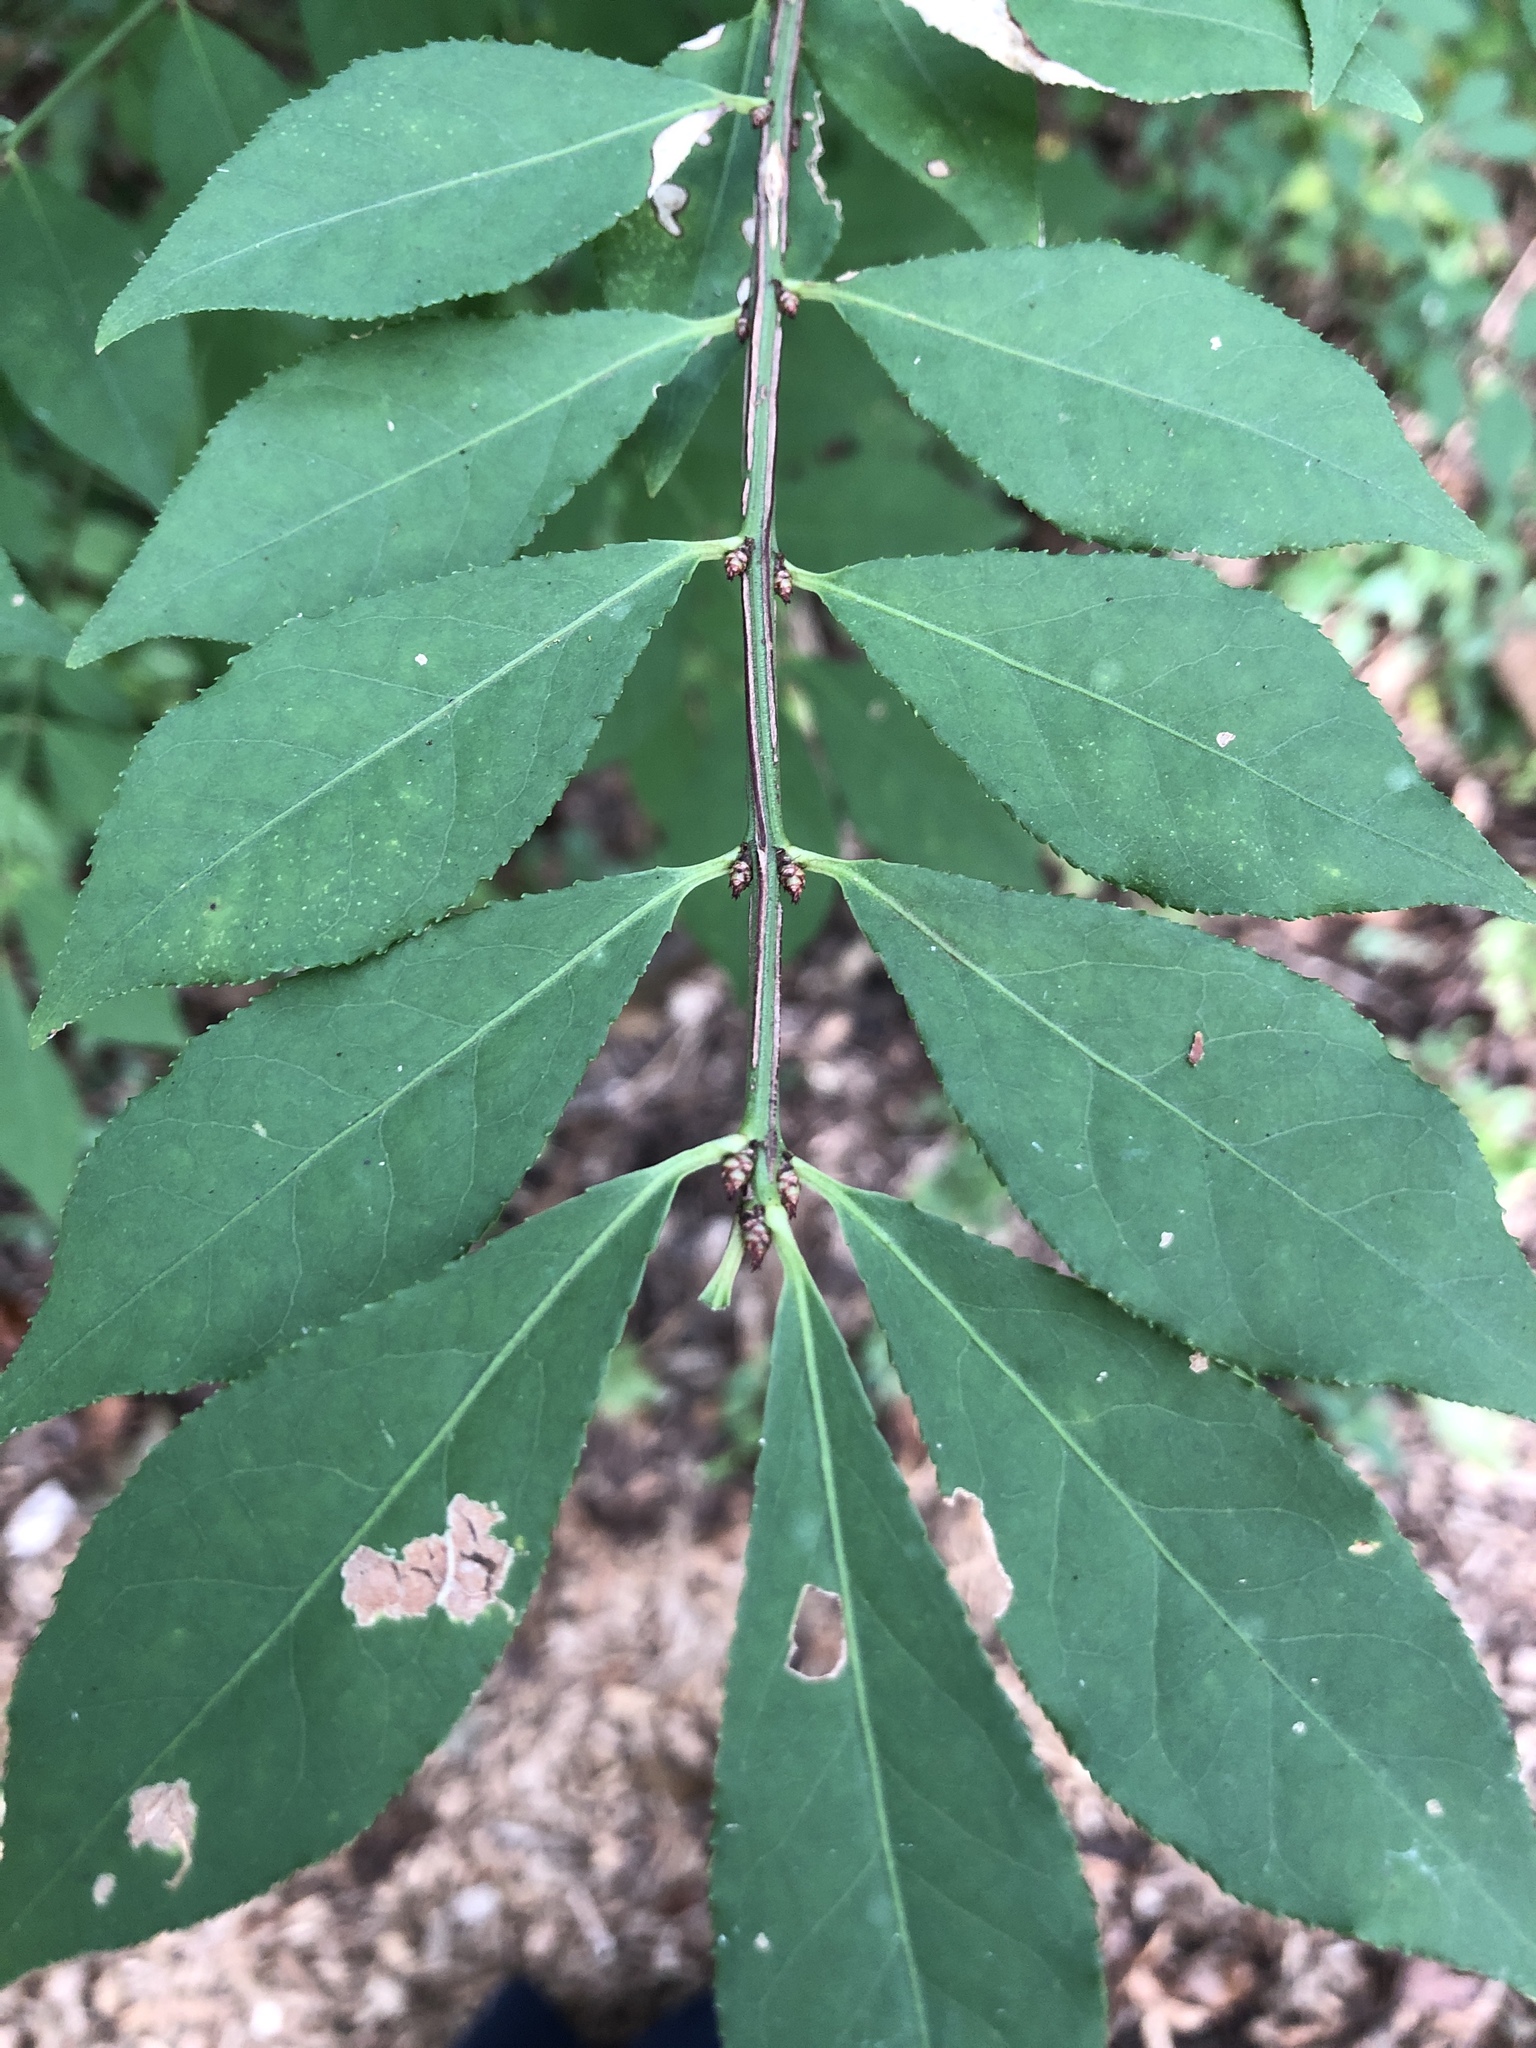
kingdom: Plantae
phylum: Tracheophyta
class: Magnoliopsida
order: Celastrales
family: Celastraceae
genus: Euonymus
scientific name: Euonymus alatus
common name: Winged euonymus
